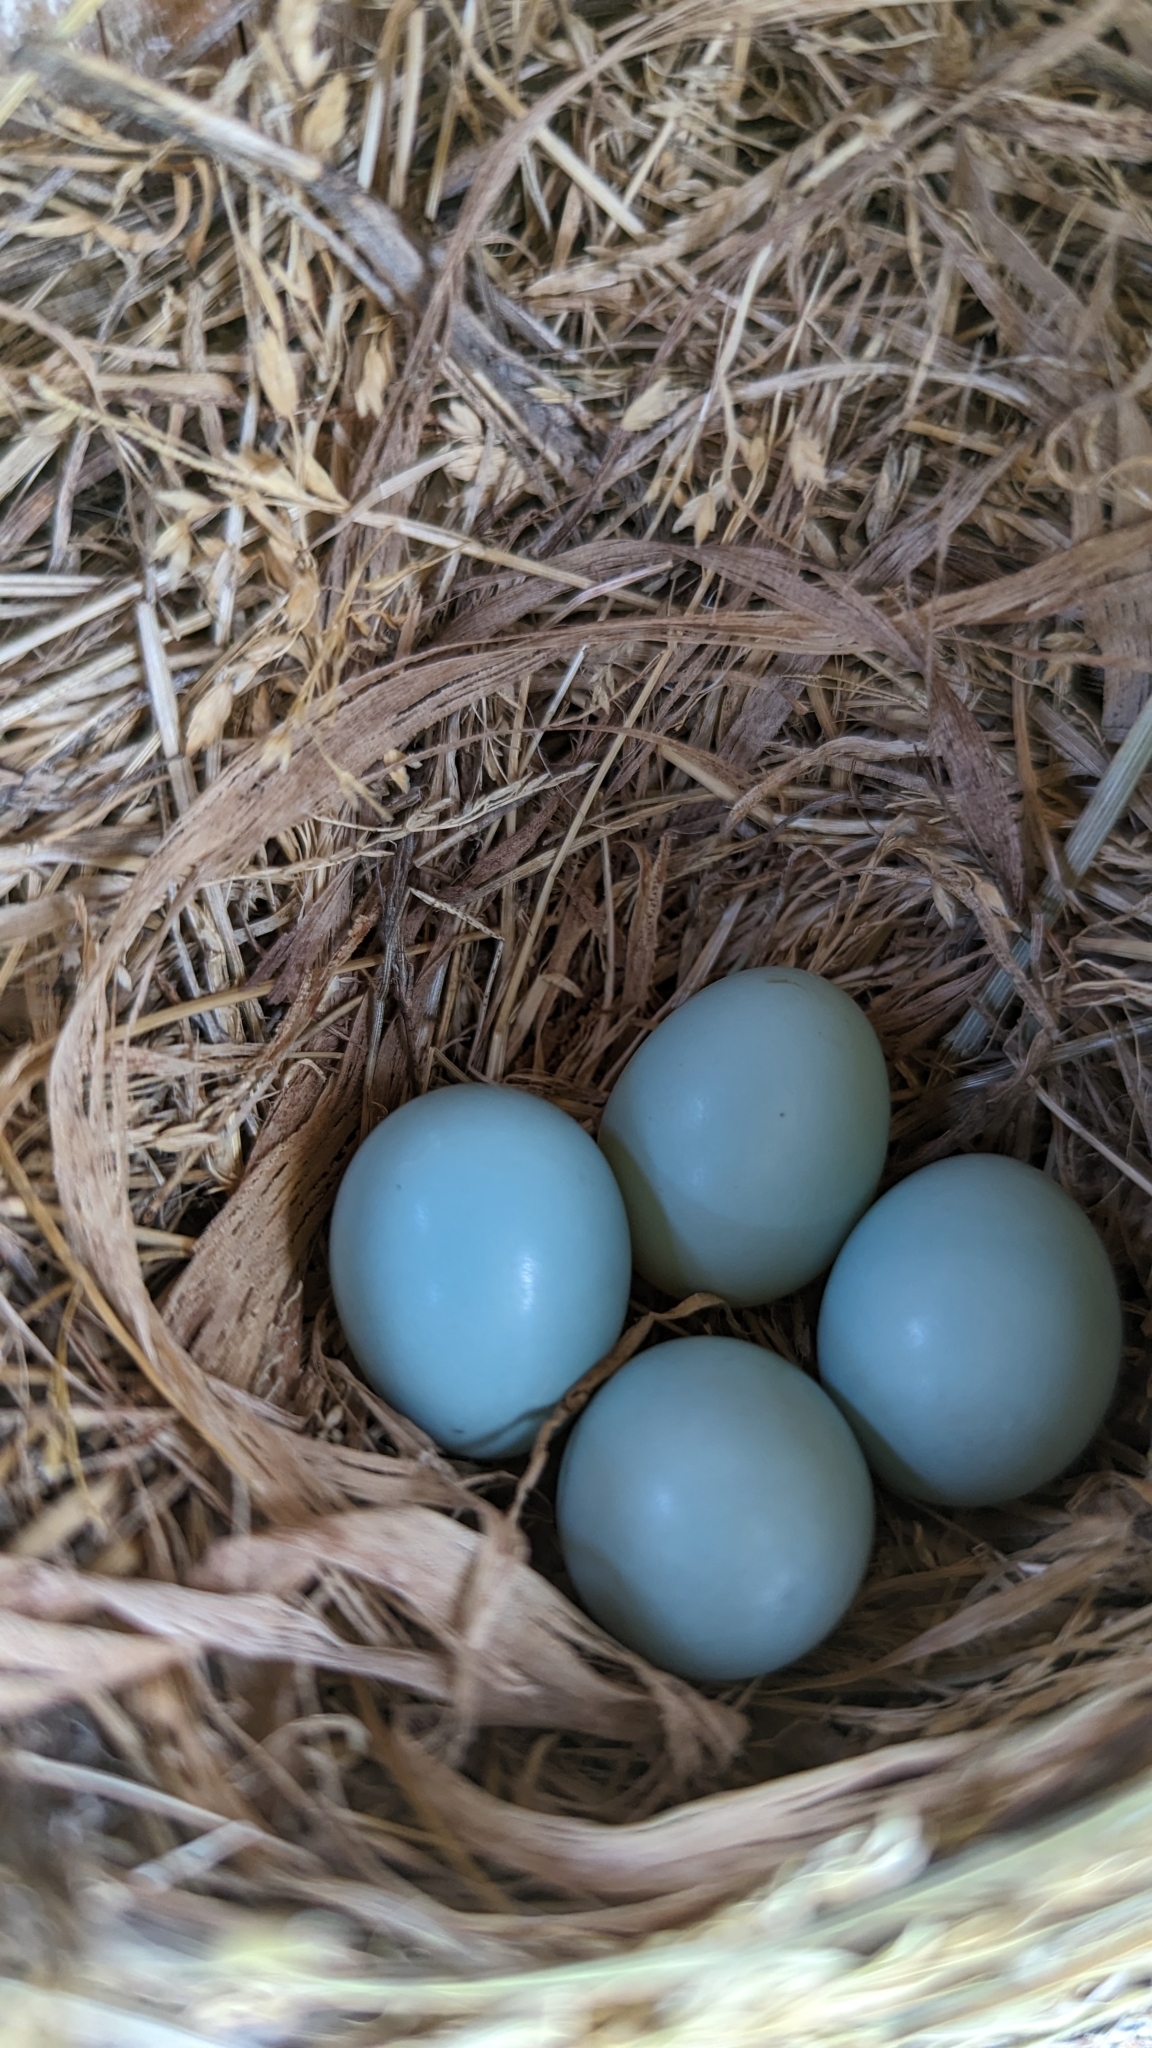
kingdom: Animalia
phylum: Chordata
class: Aves
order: Passeriformes
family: Turdidae
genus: Sialia
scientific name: Sialia sialis
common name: Eastern bluebird
